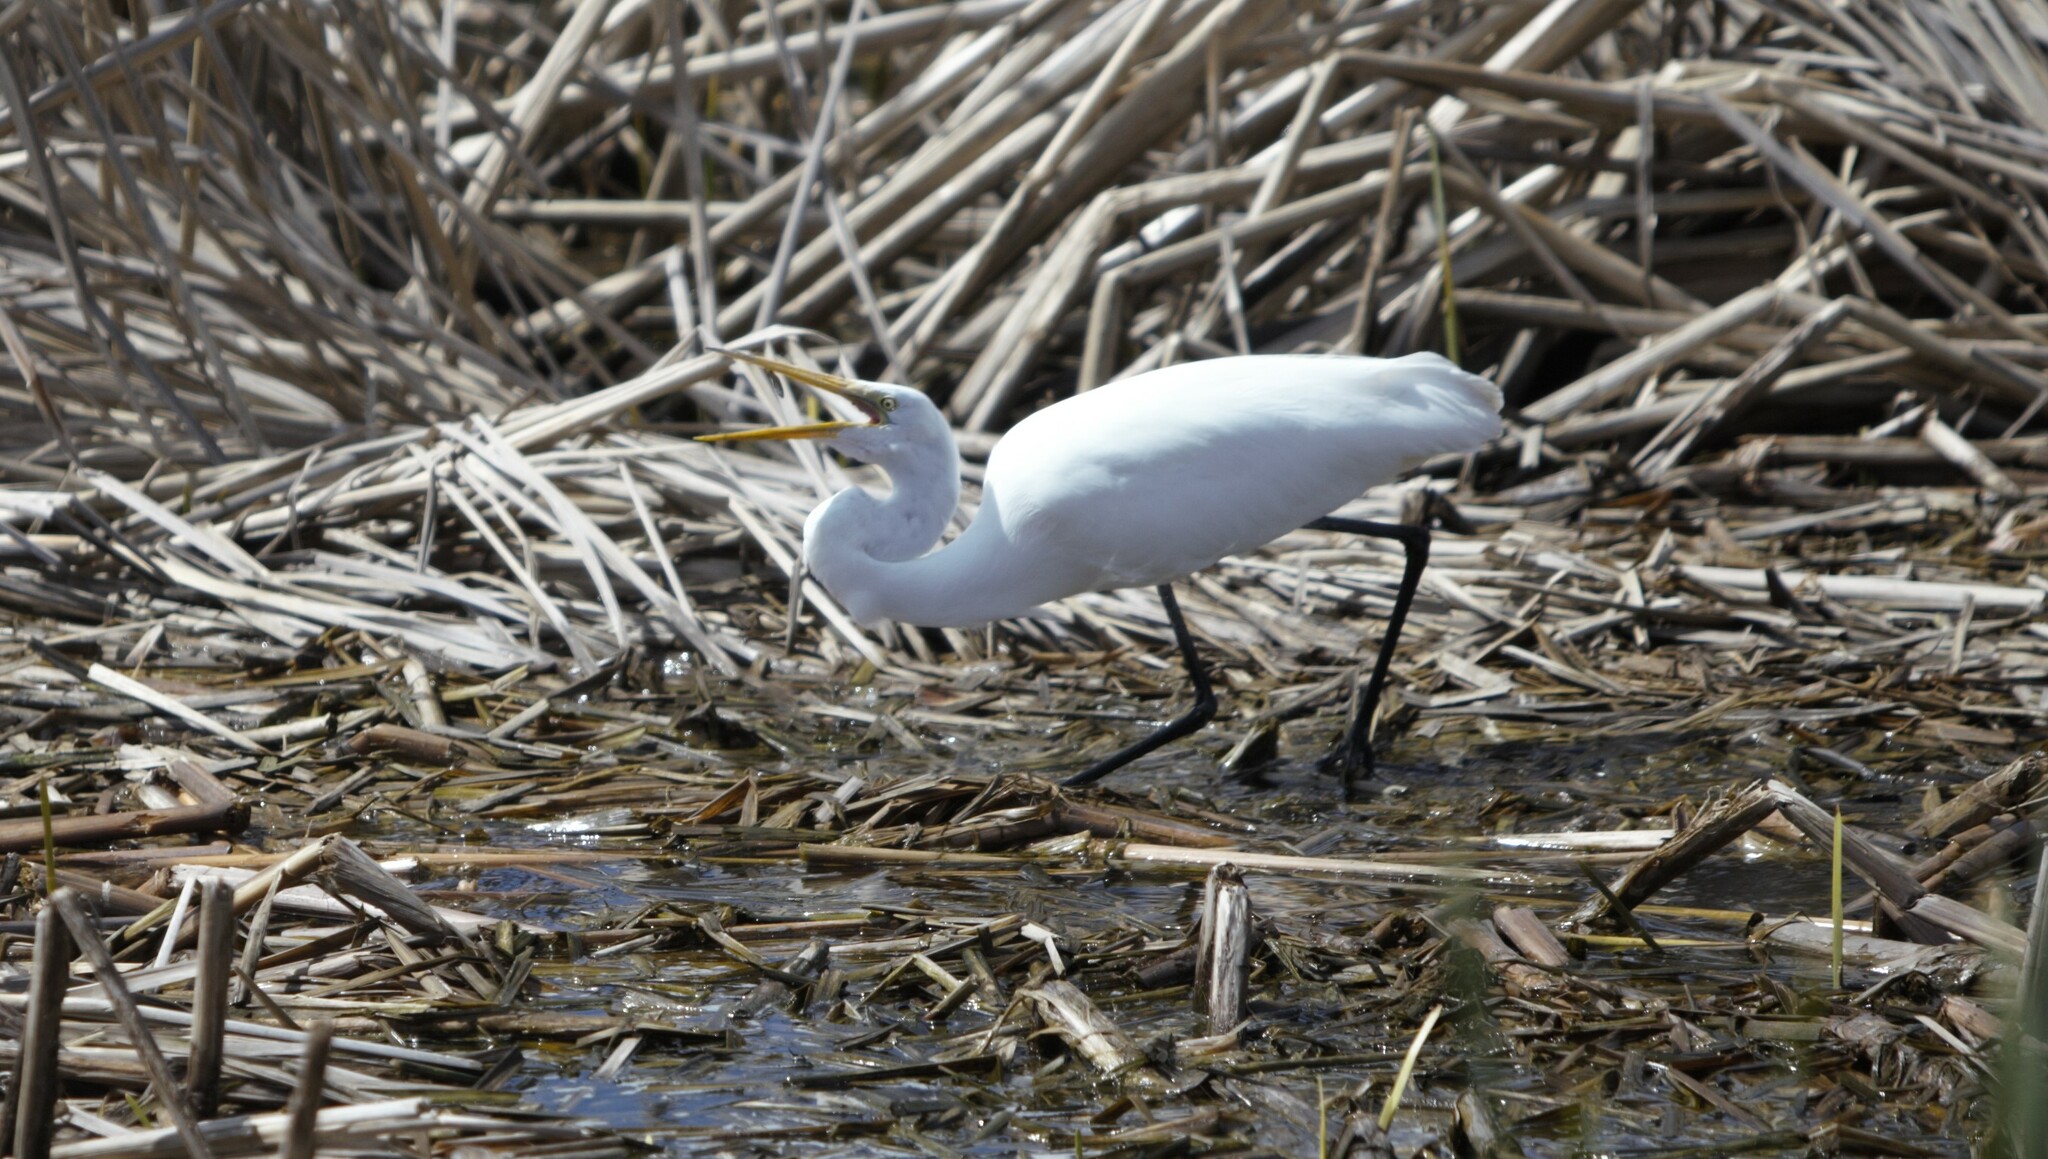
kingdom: Animalia
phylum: Chordata
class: Aves
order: Pelecaniformes
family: Ardeidae
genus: Ardea
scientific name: Ardea alba
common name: Great egret
